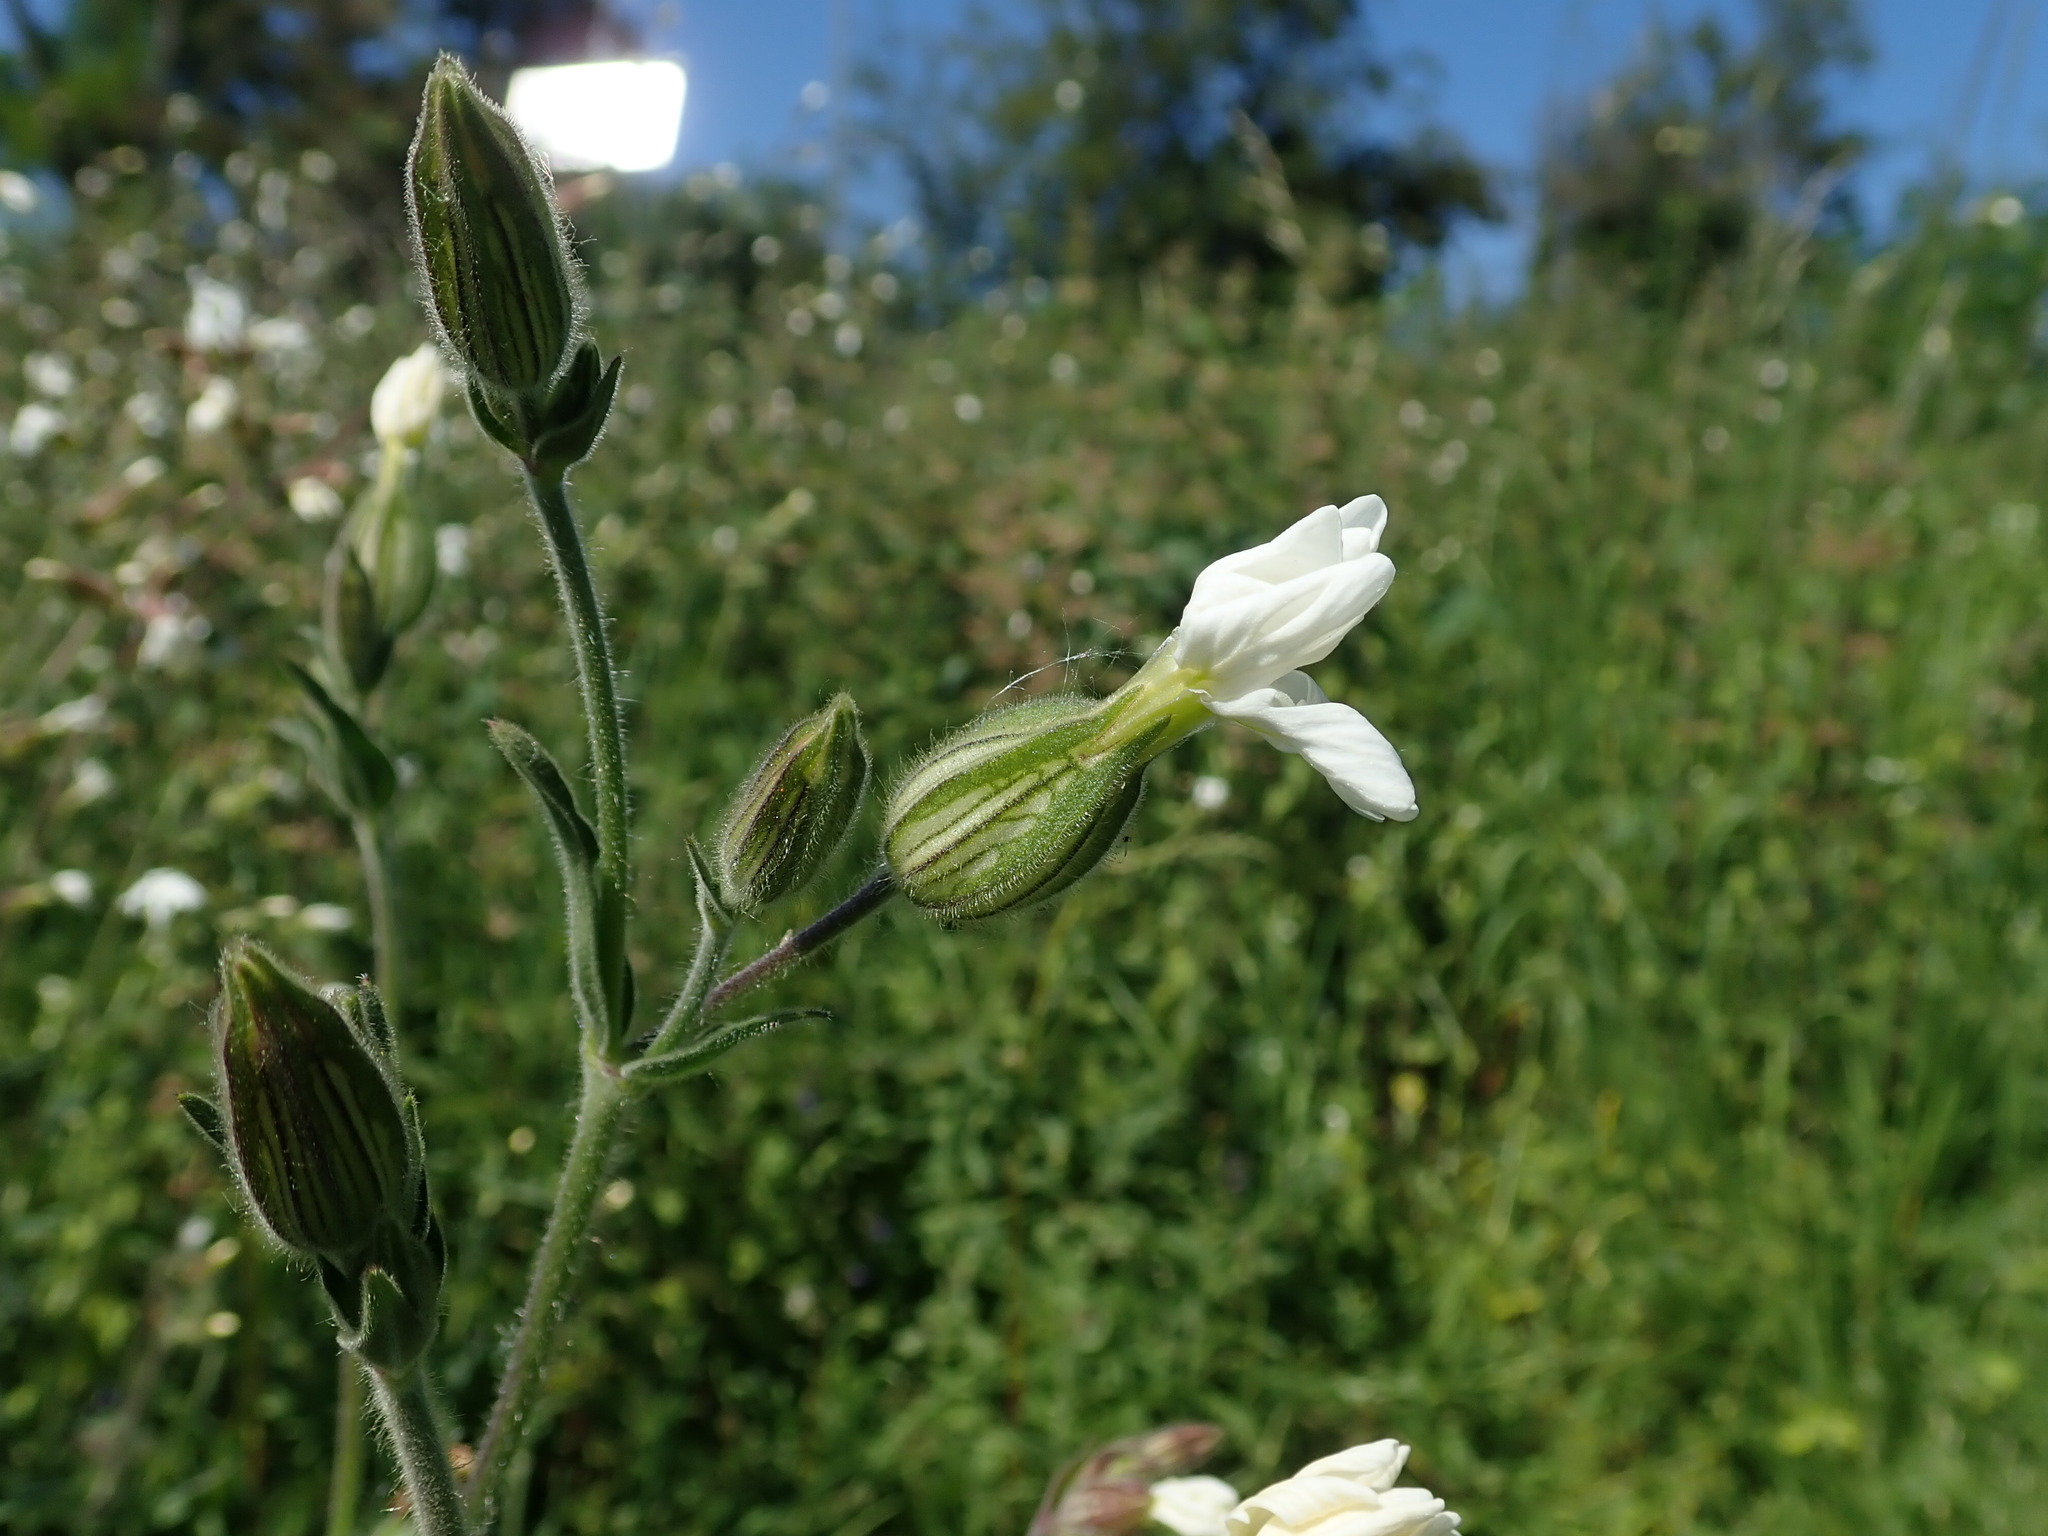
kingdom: Plantae
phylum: Tracheophyta
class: Magnoliopsida
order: Caryophyllales
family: Caryophyllaceae
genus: Silene
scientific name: Silene latifolia
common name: White campion
